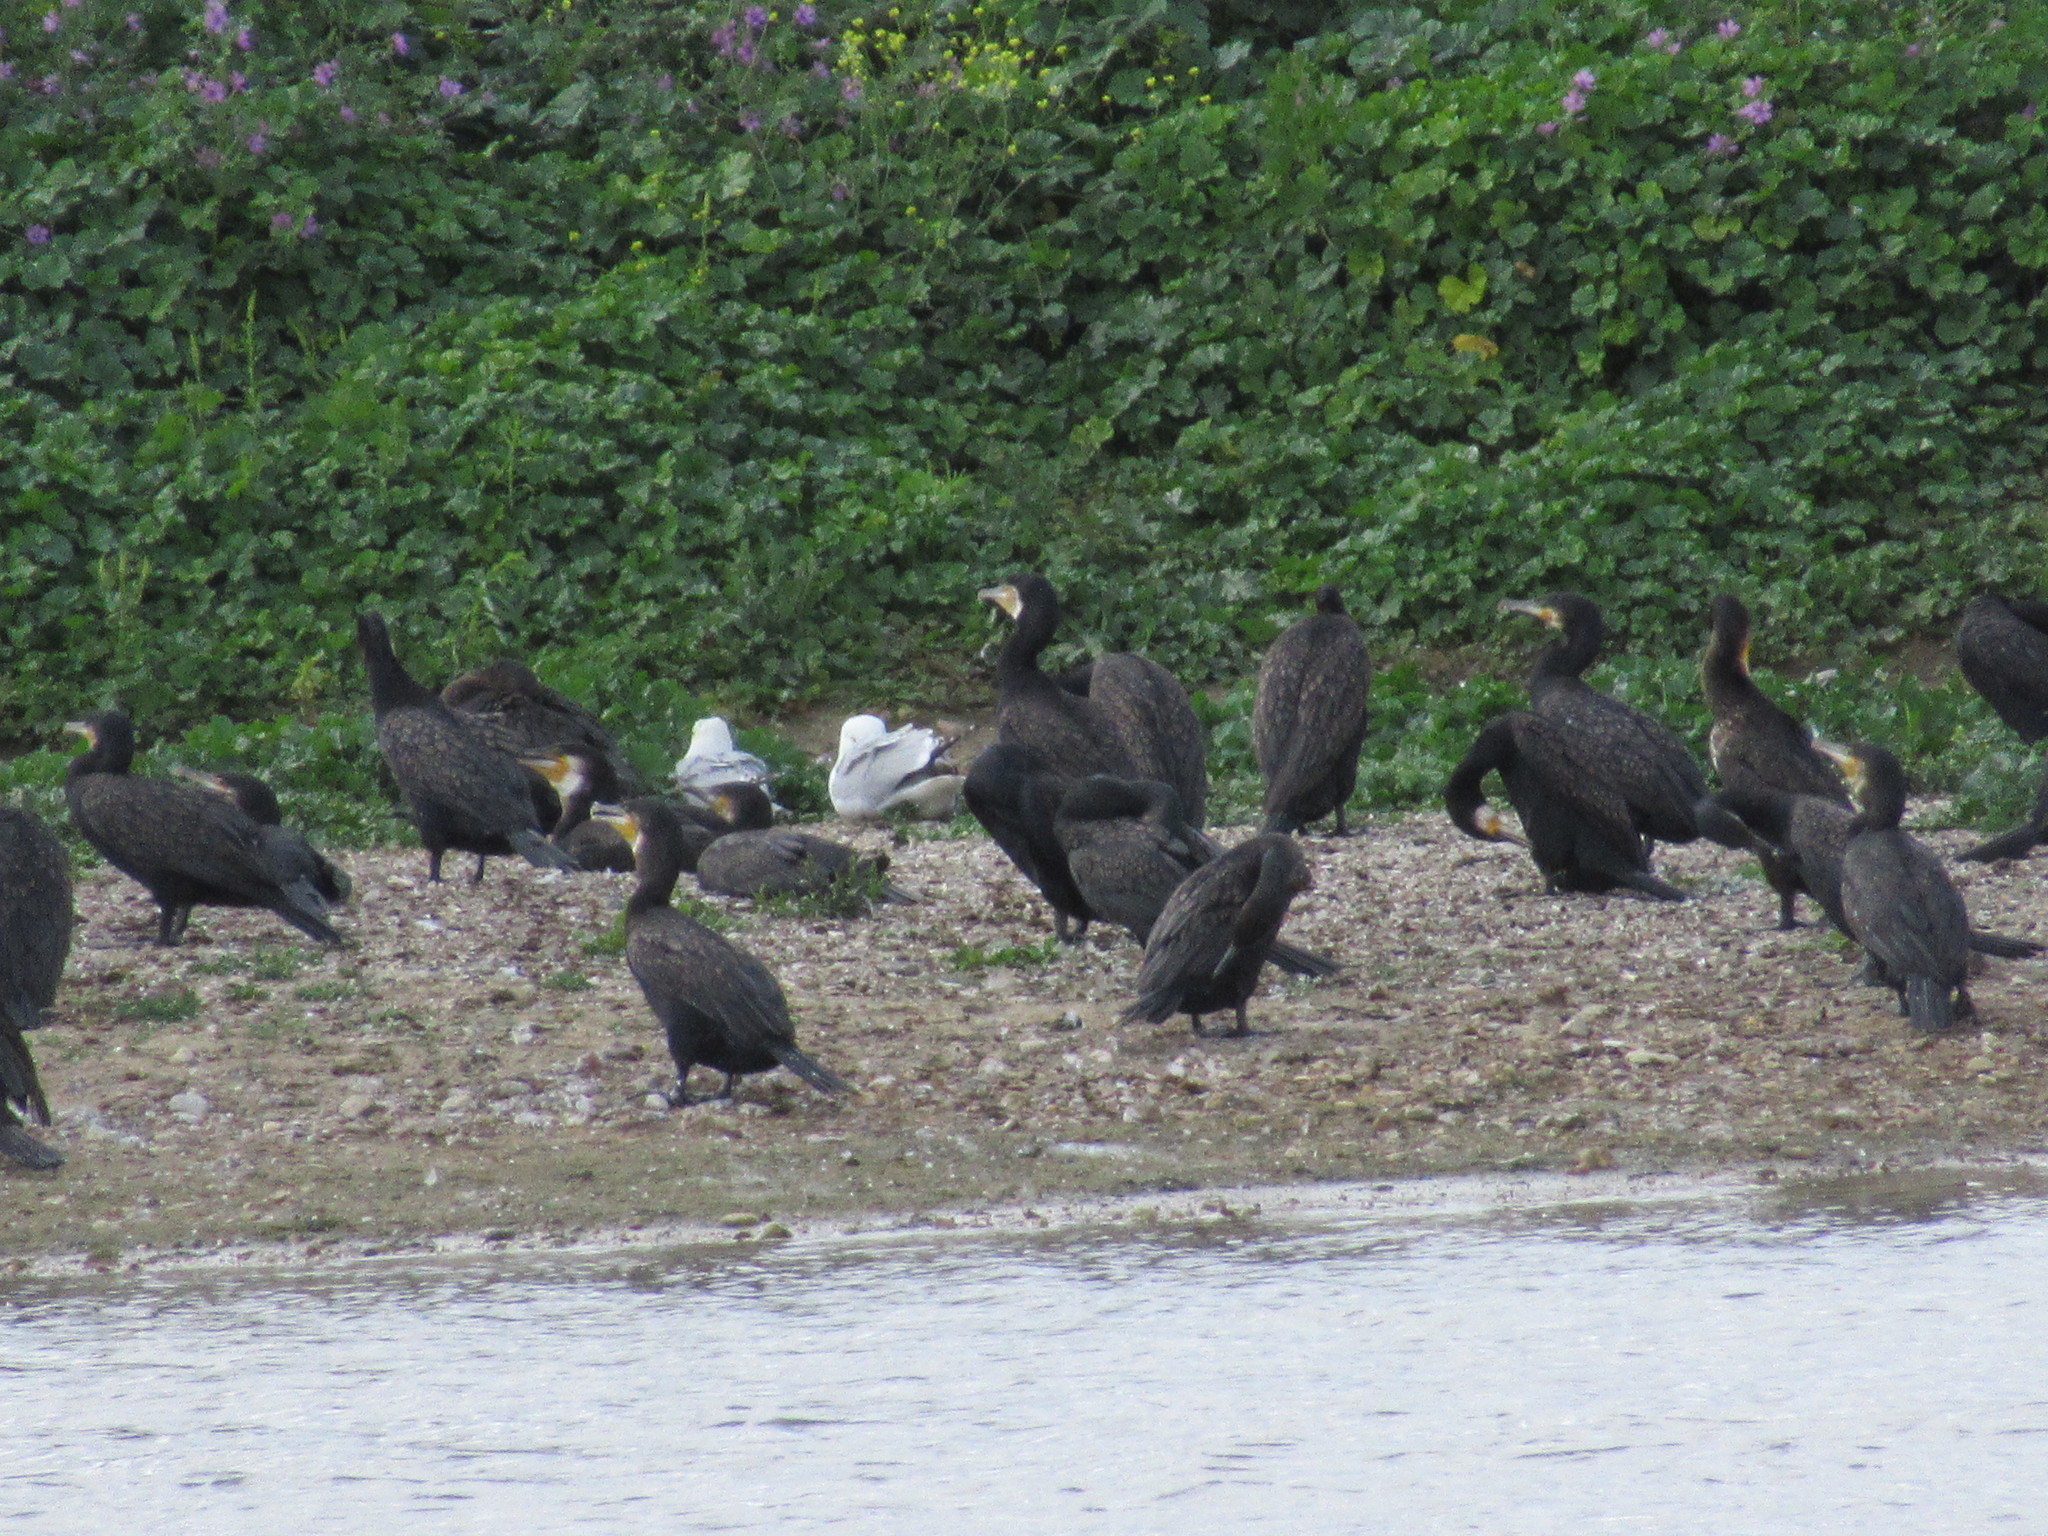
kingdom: Animalia
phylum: Chordata
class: Aves
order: Suliformes
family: Phalacrocoracidae
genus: Phalacrocorax
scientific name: Phalacrocorax carbo
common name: Great cormorant
